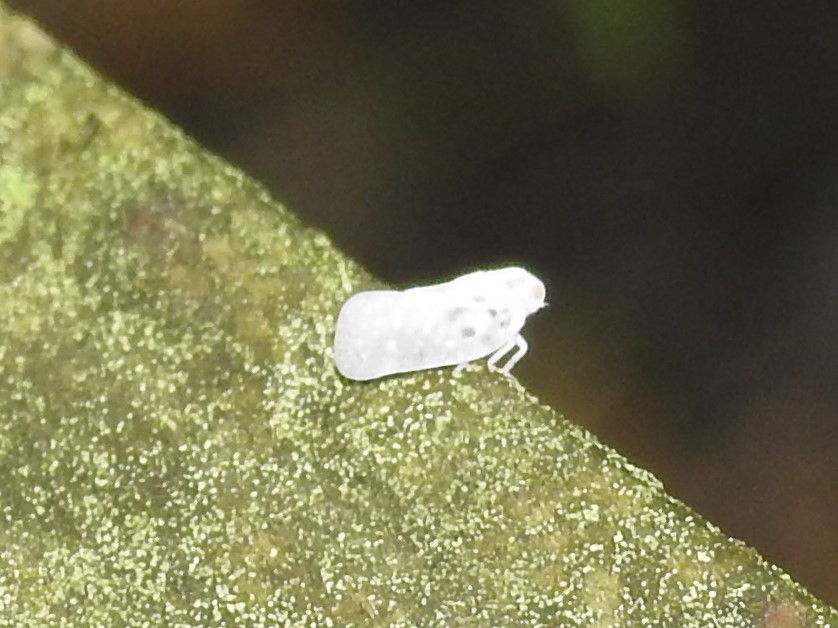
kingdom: Animalia
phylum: Arthropoda
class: Insecta
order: Hemiptera
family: Flatidae
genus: Metcalfa
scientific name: Metcalfa pruinosa
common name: Citrus flatid planthopper
